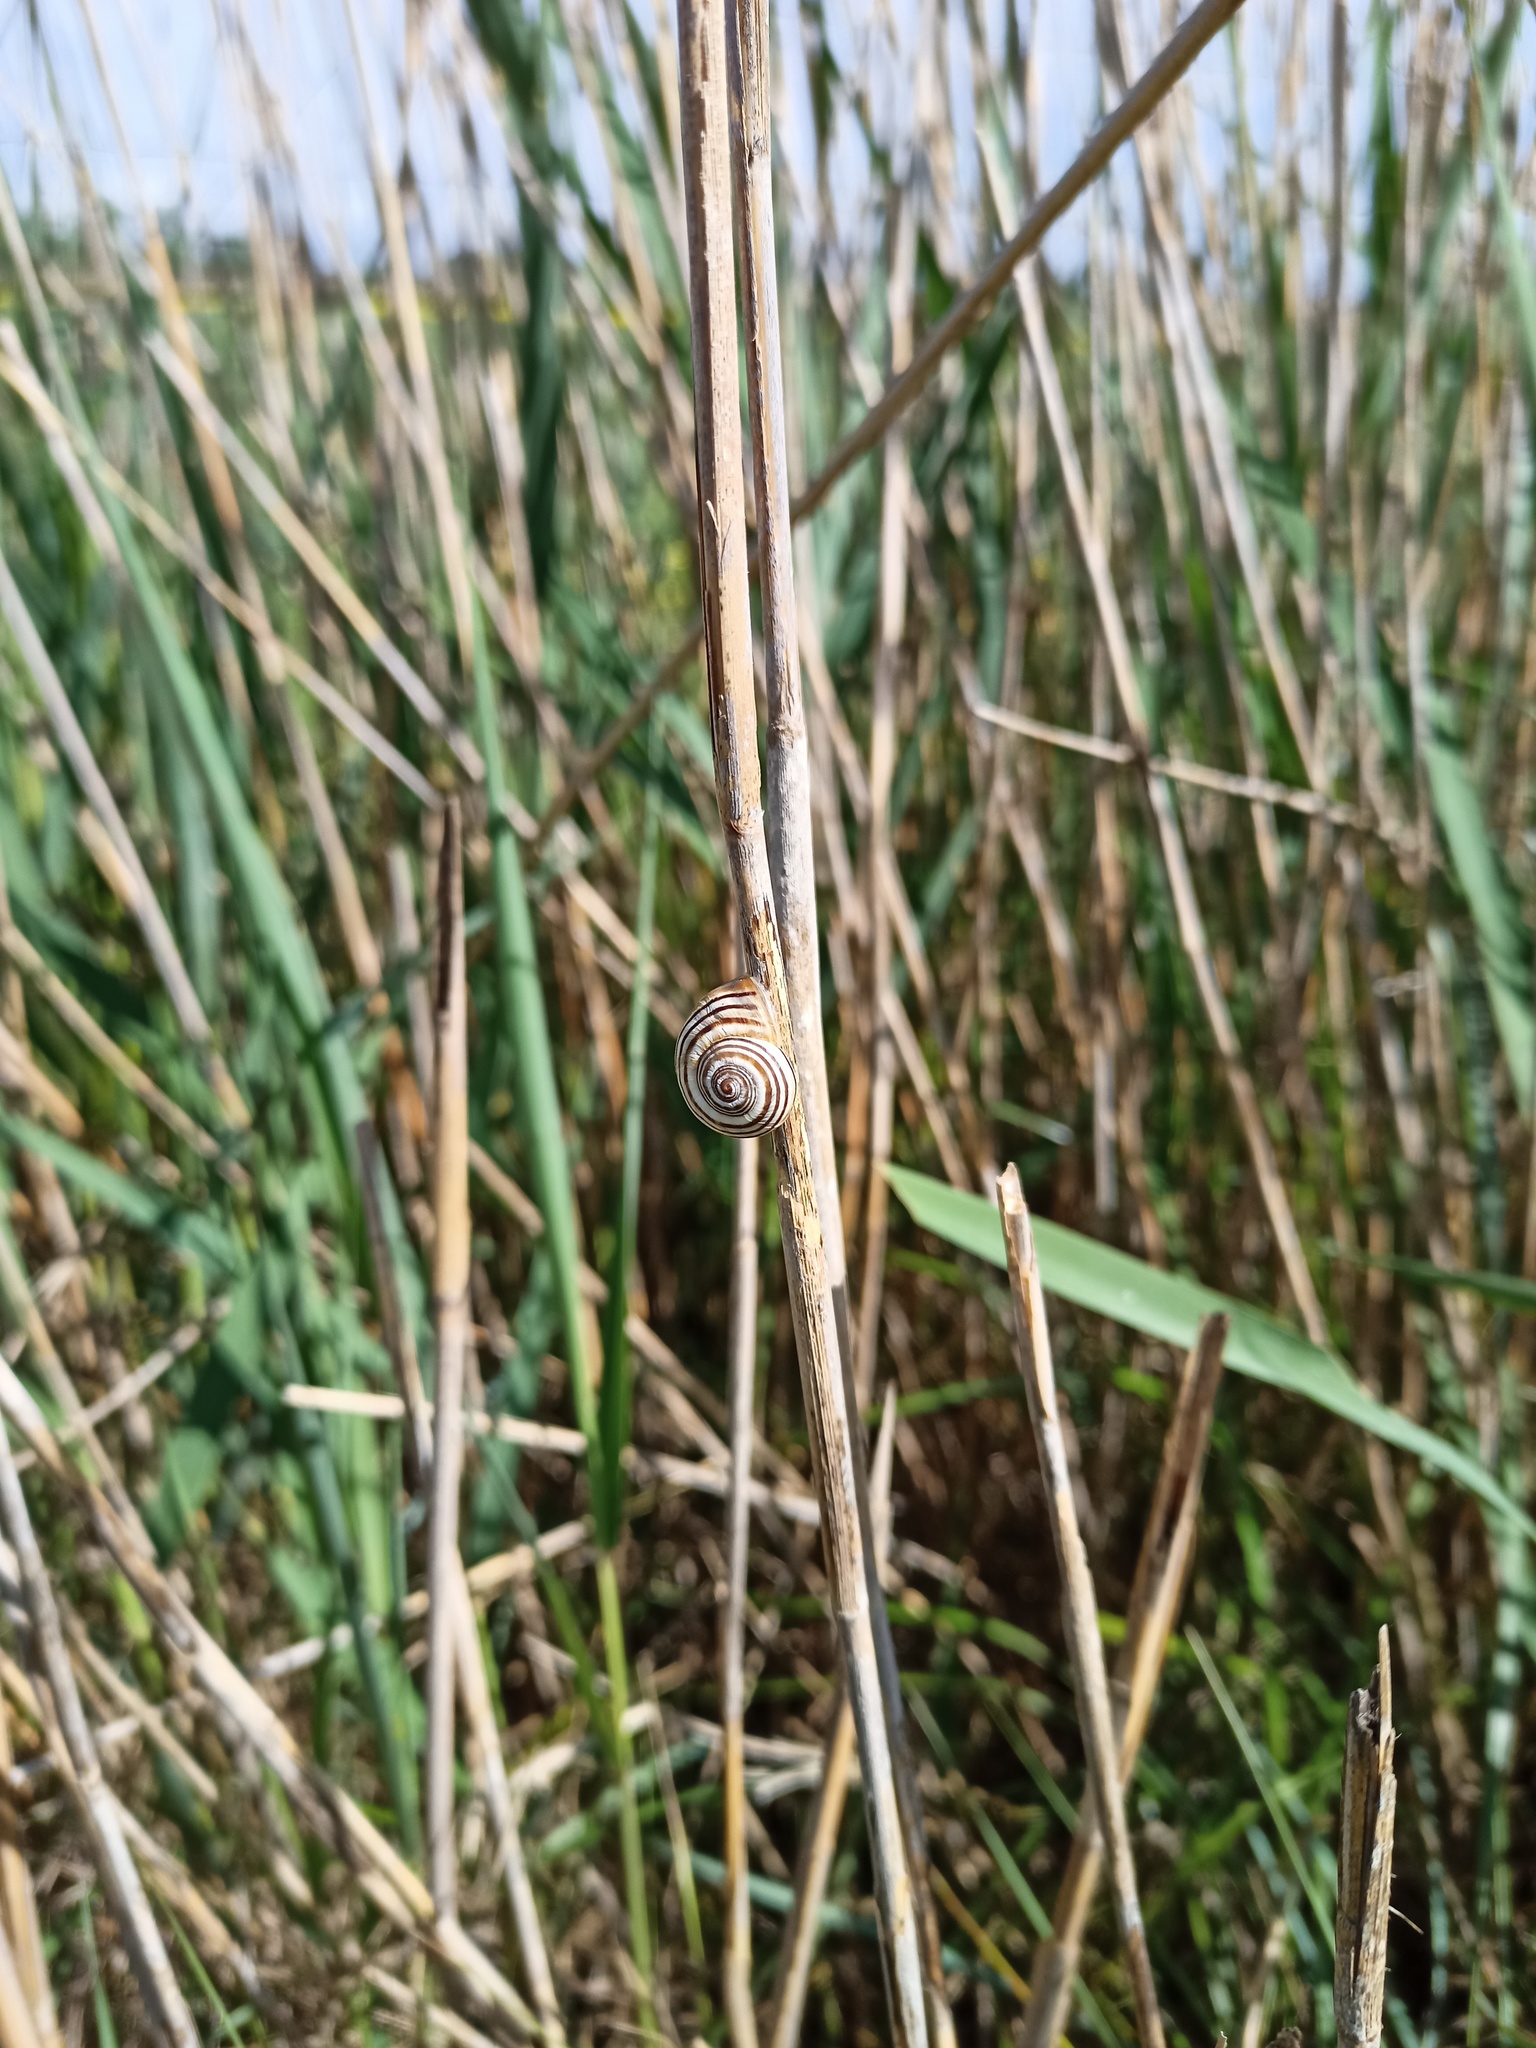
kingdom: Animalia
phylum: Mollusca
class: Gastropoda
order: Stylommatophora
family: Helicidae
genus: Pseudotachea
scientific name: Pseudotachea splendida
